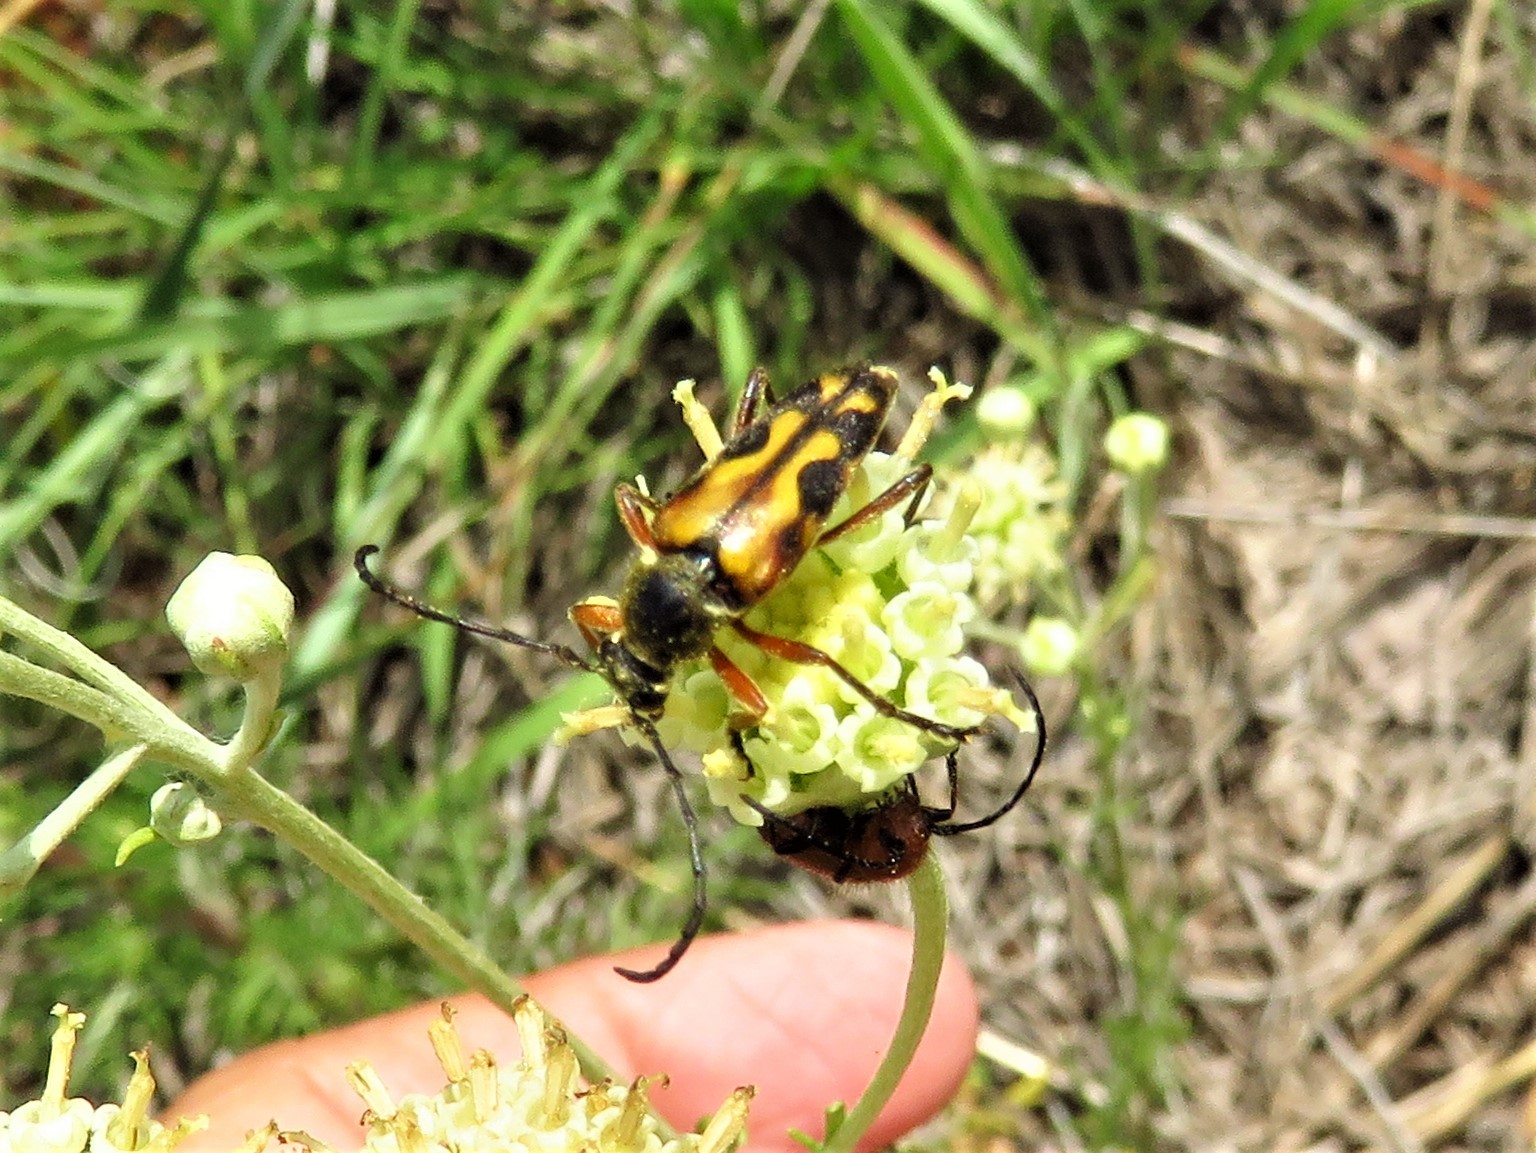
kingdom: Animalia
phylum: Arthropoda
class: Insecta
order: Coleoptera
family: Cerambycidae
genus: Typocerus
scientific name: Typocerus octonotatus
